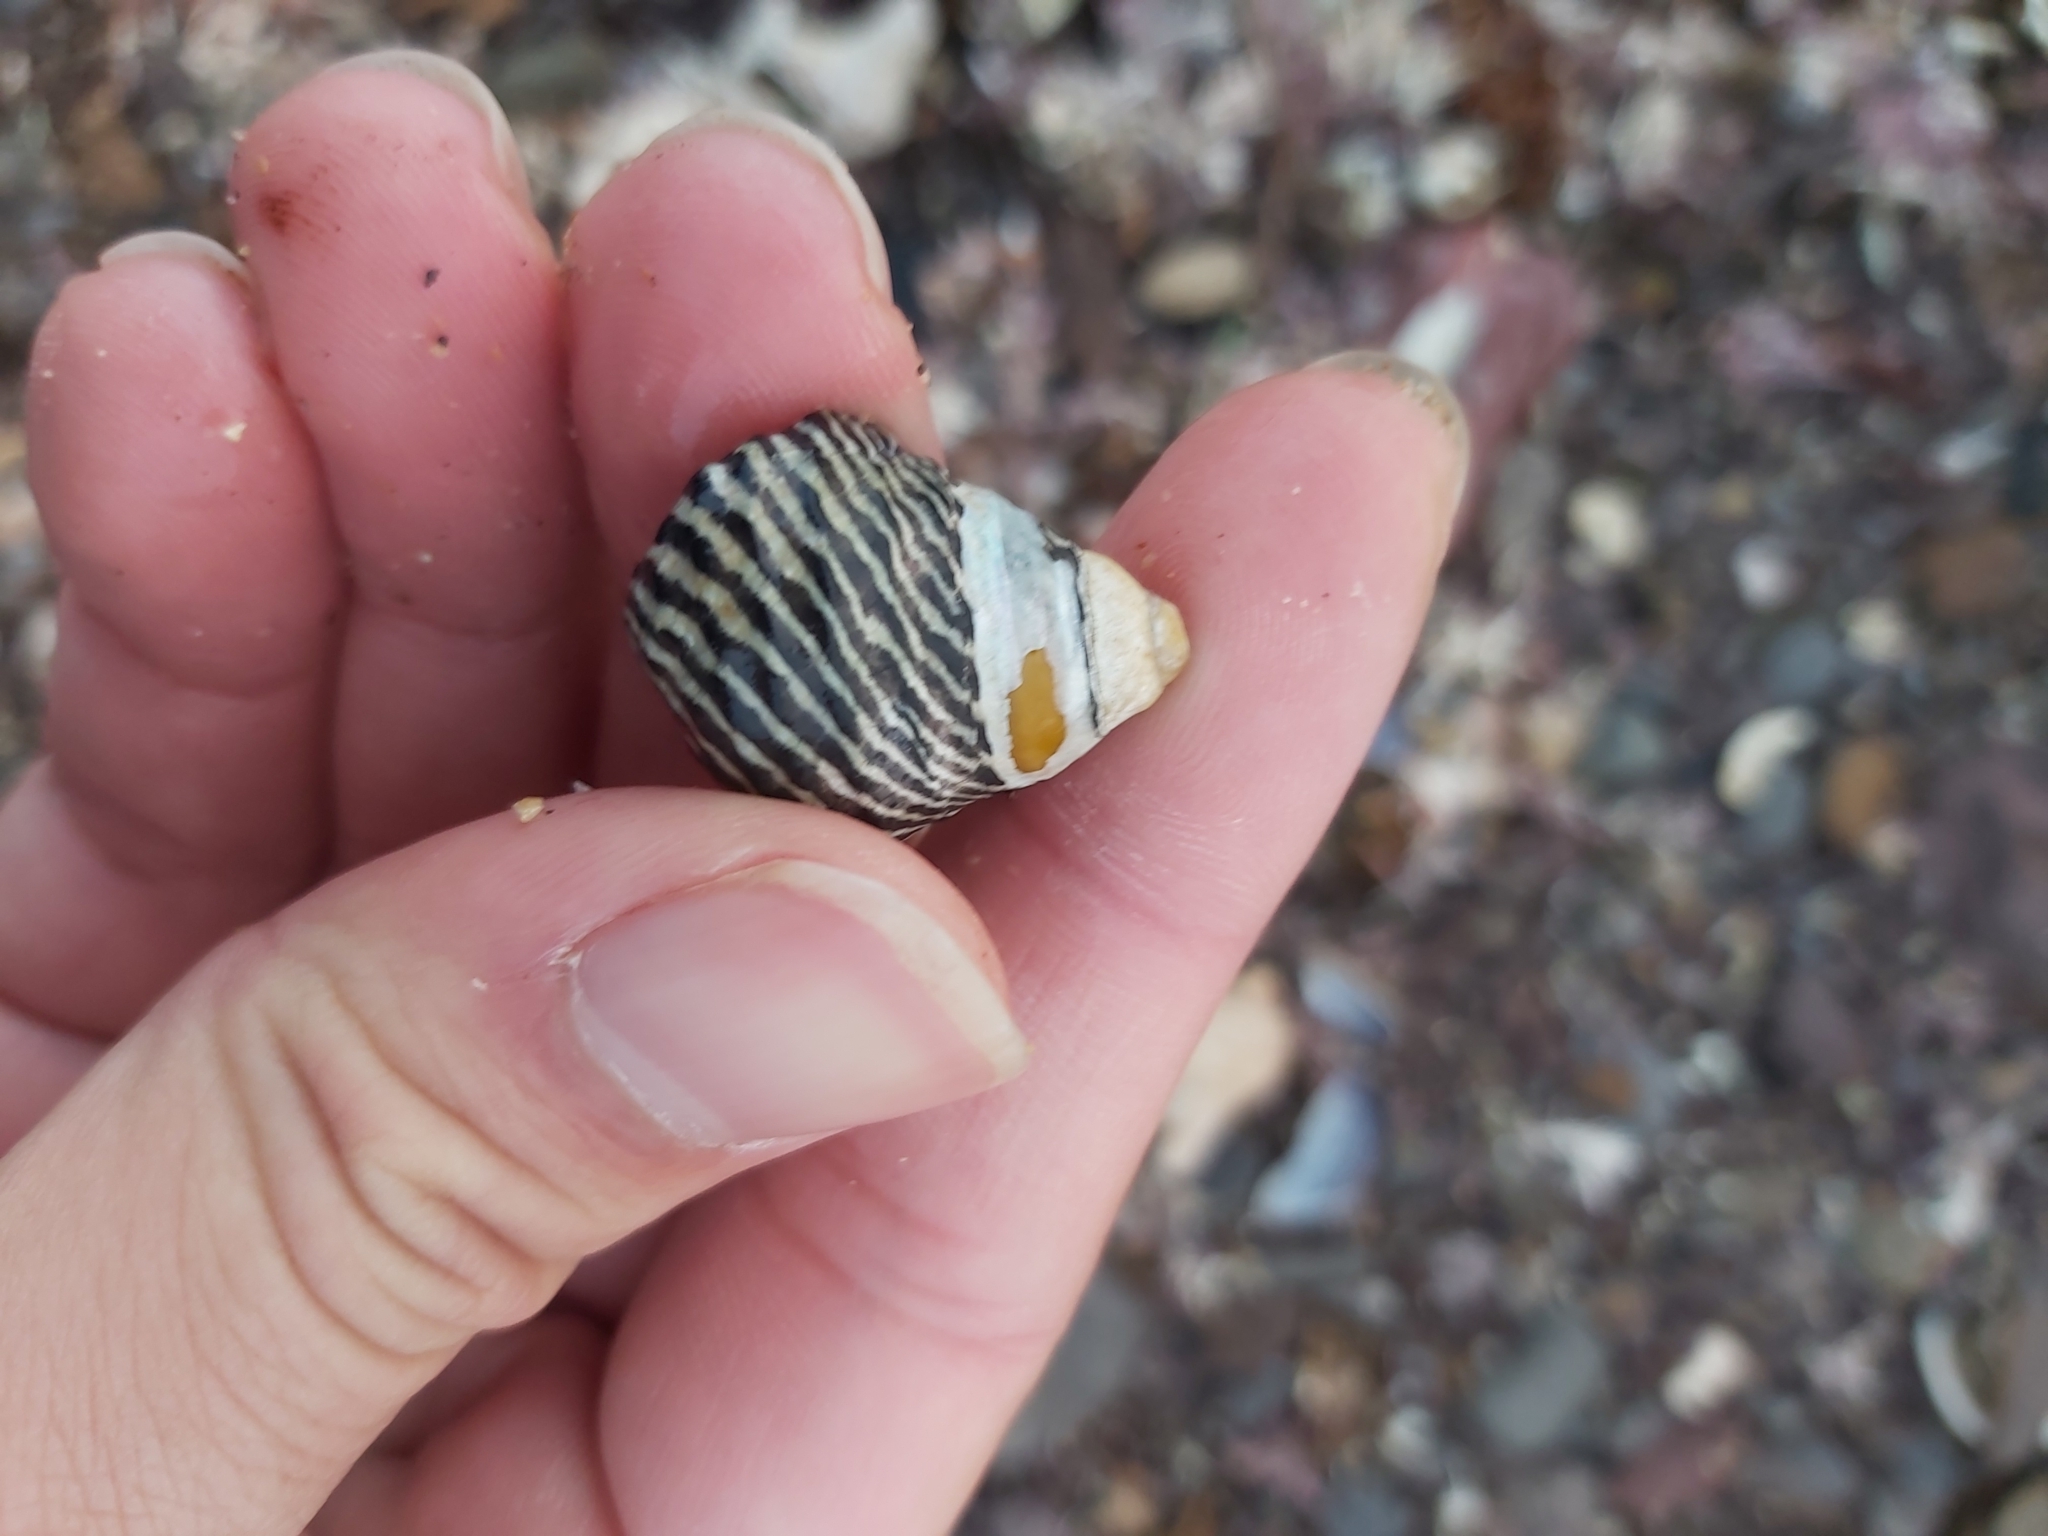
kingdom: Animalia
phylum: Mollusca
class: Gastropoda
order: Trochida
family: Trochidae
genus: Austrocochlea
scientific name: Austrocochlea porcata
